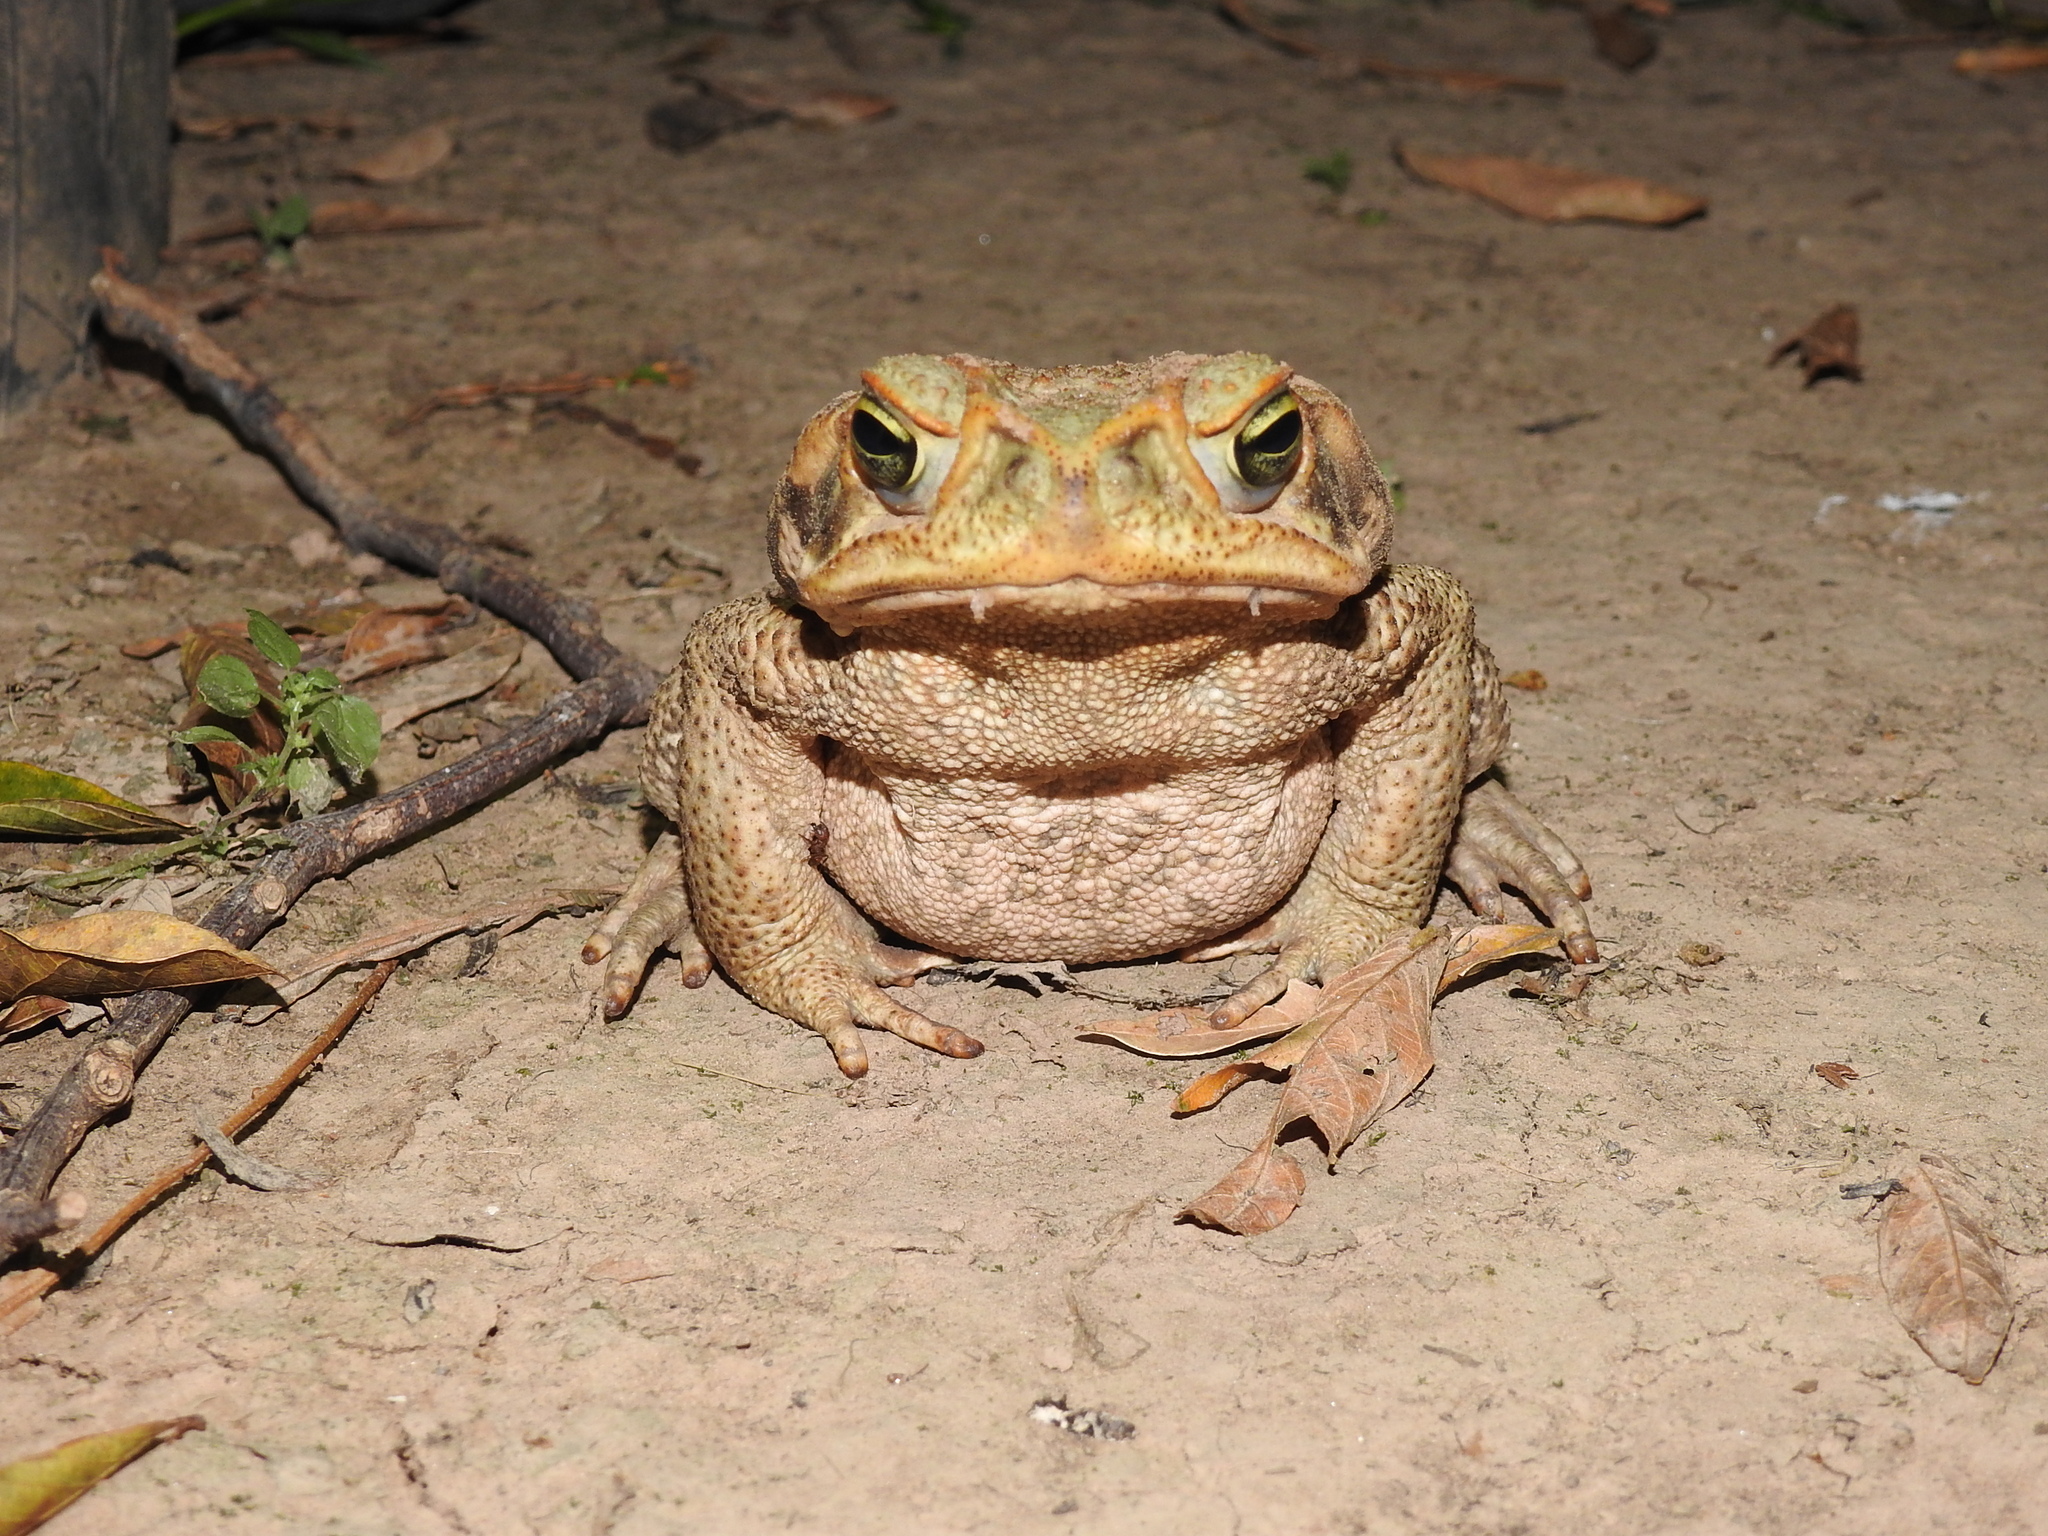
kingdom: Animalia
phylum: Chordata
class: Amphibia
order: Anura
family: Bufonidae
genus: Rhinella
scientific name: Rhinella diptycha
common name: Cope's toad
